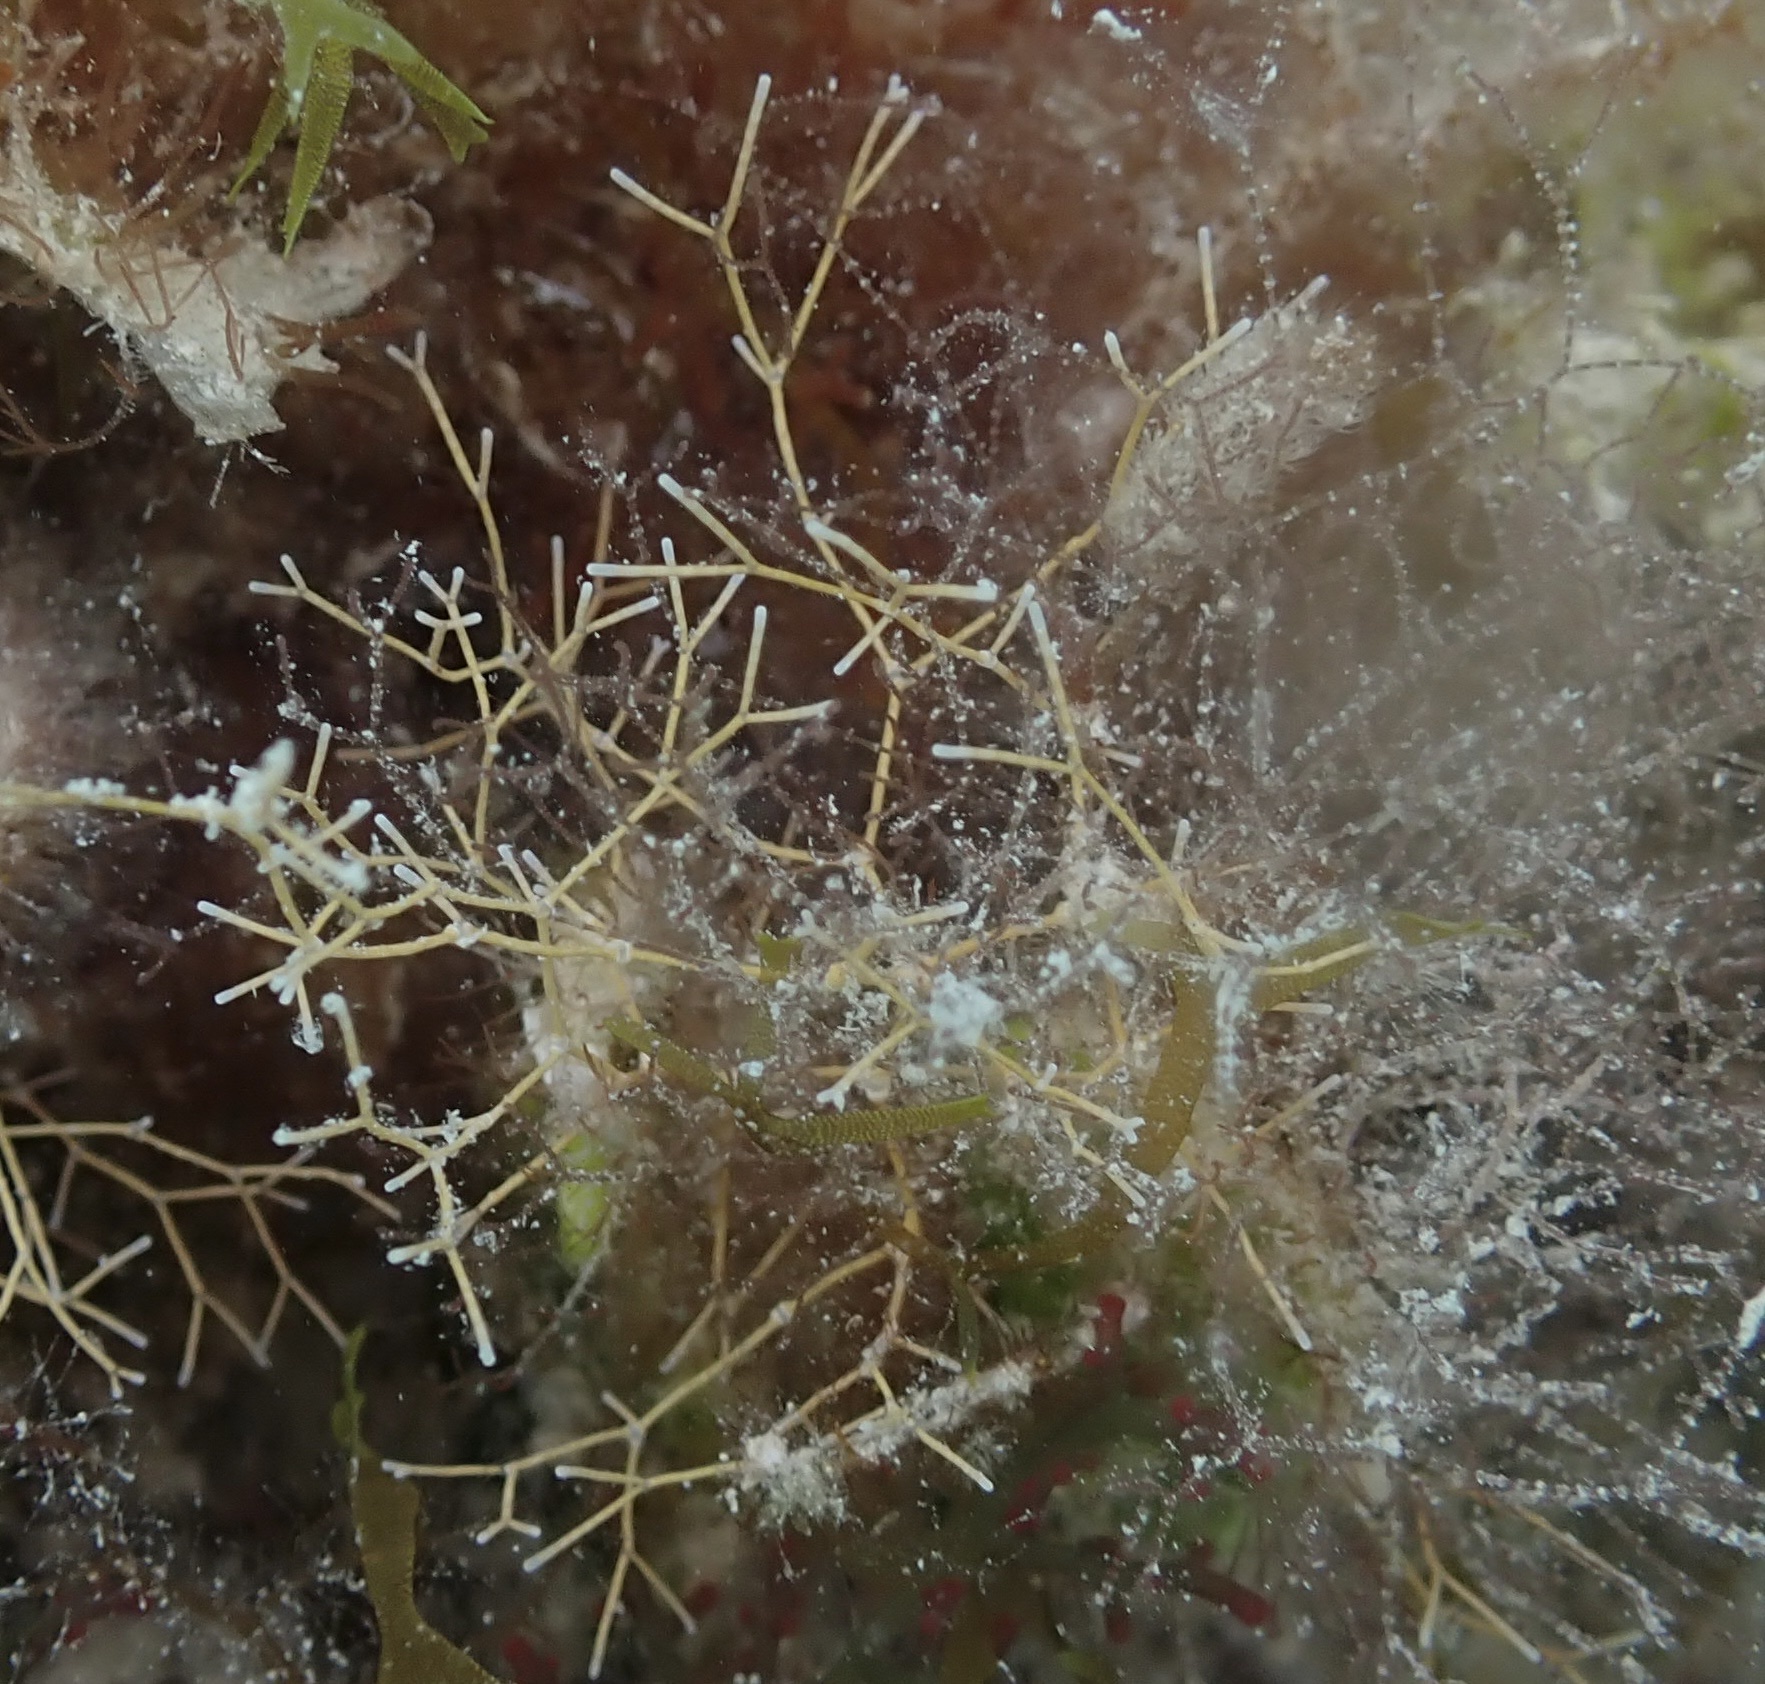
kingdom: Plantae
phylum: Rhodophyta
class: Florideophyceae
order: Corallinales
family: Lithophyllaceae
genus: Amphiroa
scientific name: Amphiroa fragilissima
